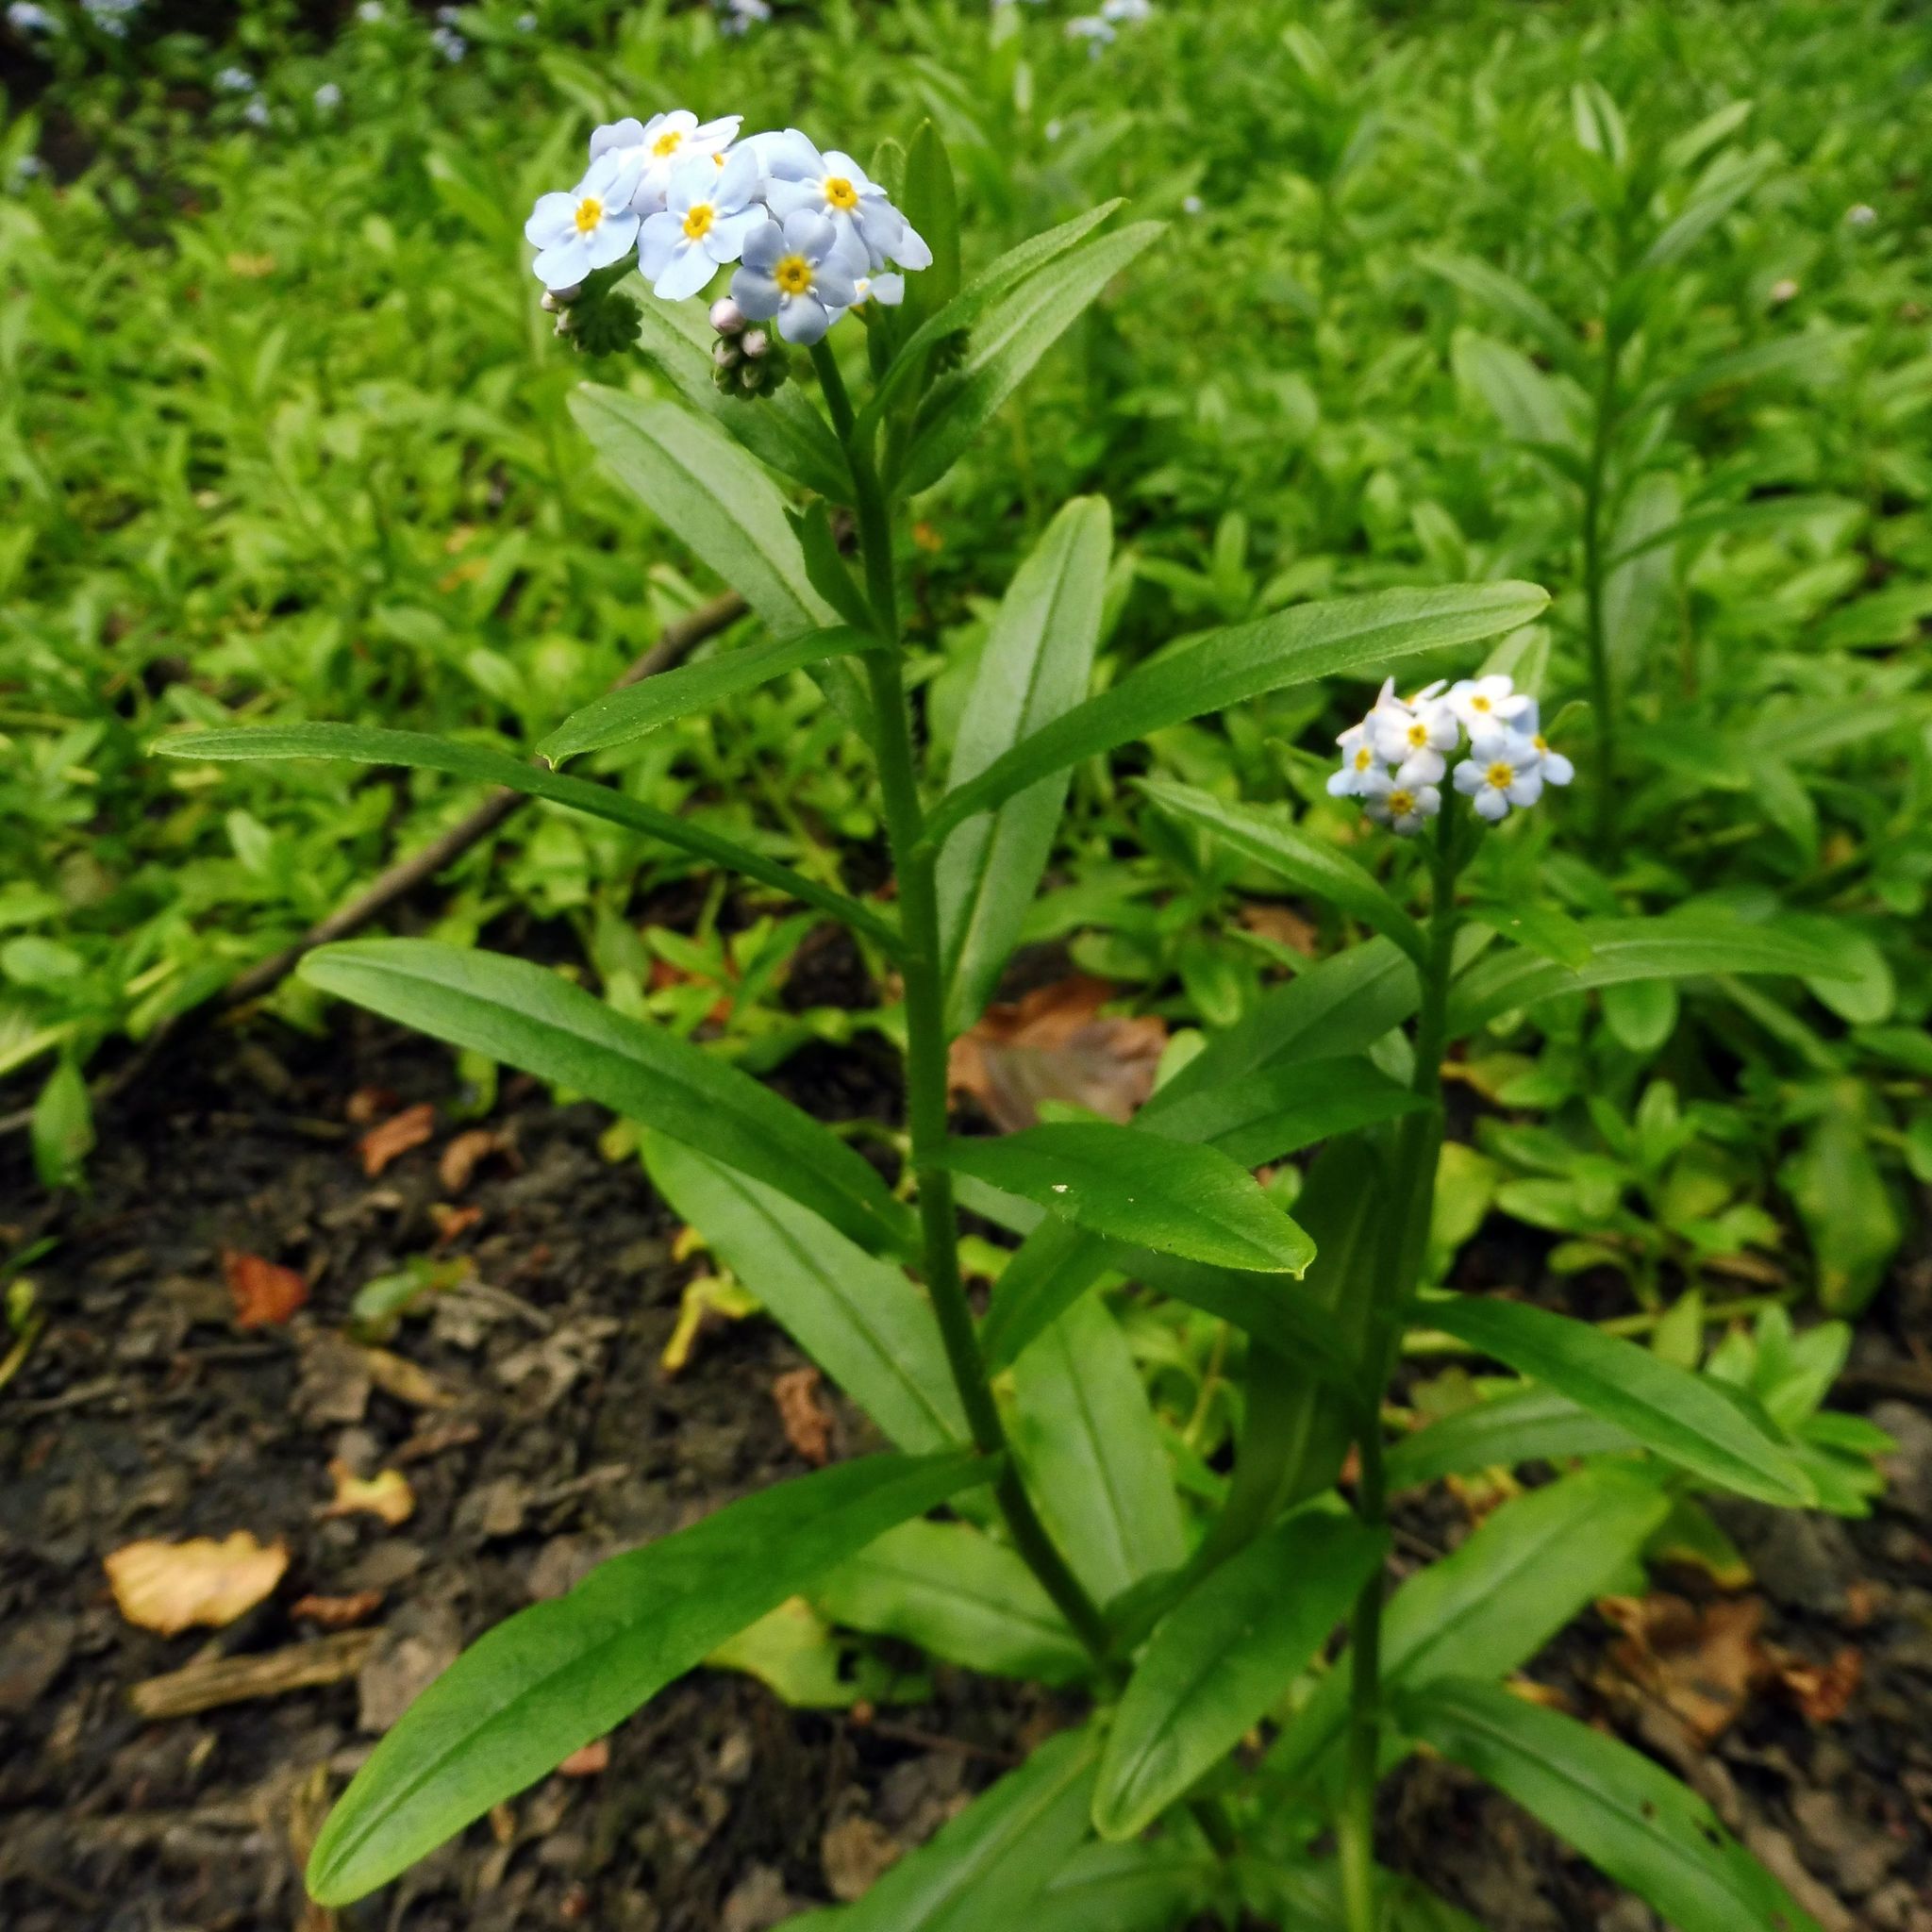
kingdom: Plantae
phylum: Tracheophyta
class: Magnoliopsida
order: Boraginales
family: Boraginaceae
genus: Myosotis
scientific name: Myosotis scorpioides
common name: Water forget-me-not
